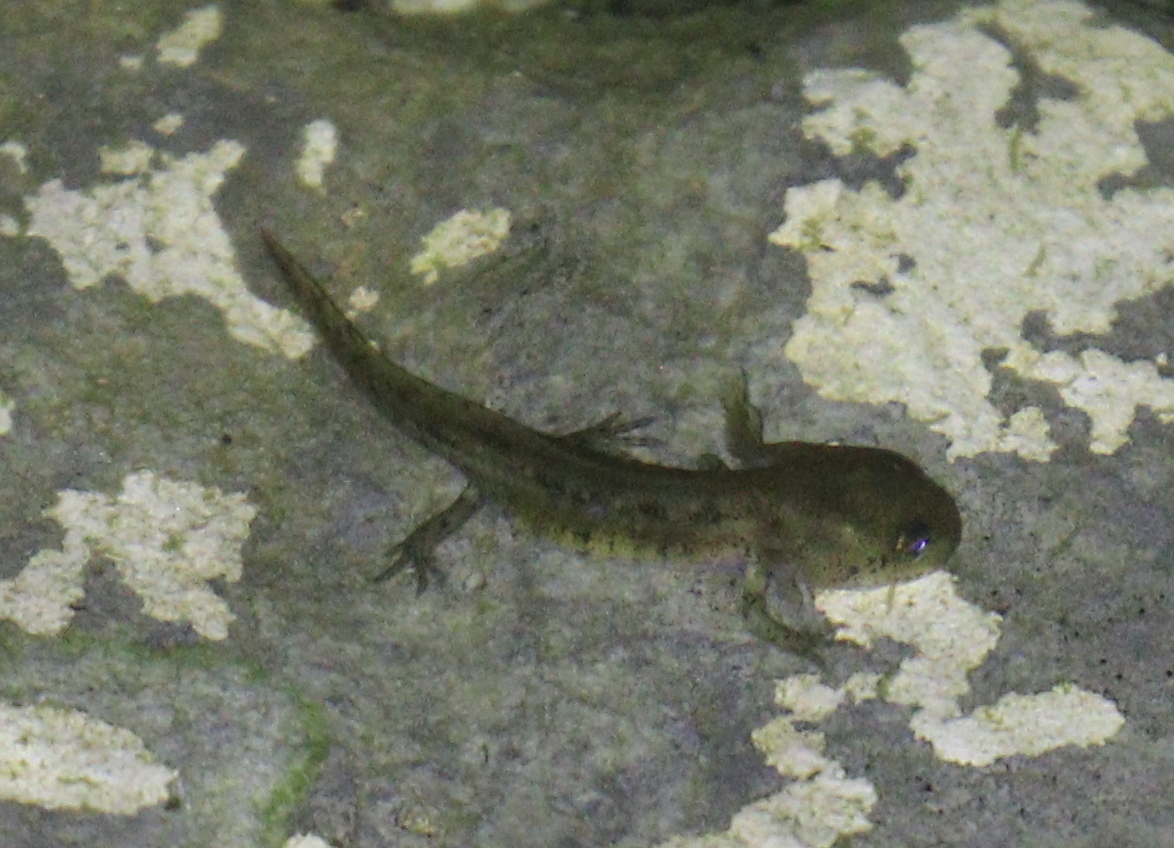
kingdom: Animalia
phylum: Chordata
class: Amphibia
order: Caudata
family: Salamandridae
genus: Salamandra
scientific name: Salamandra salamandra
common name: Fire salamander
